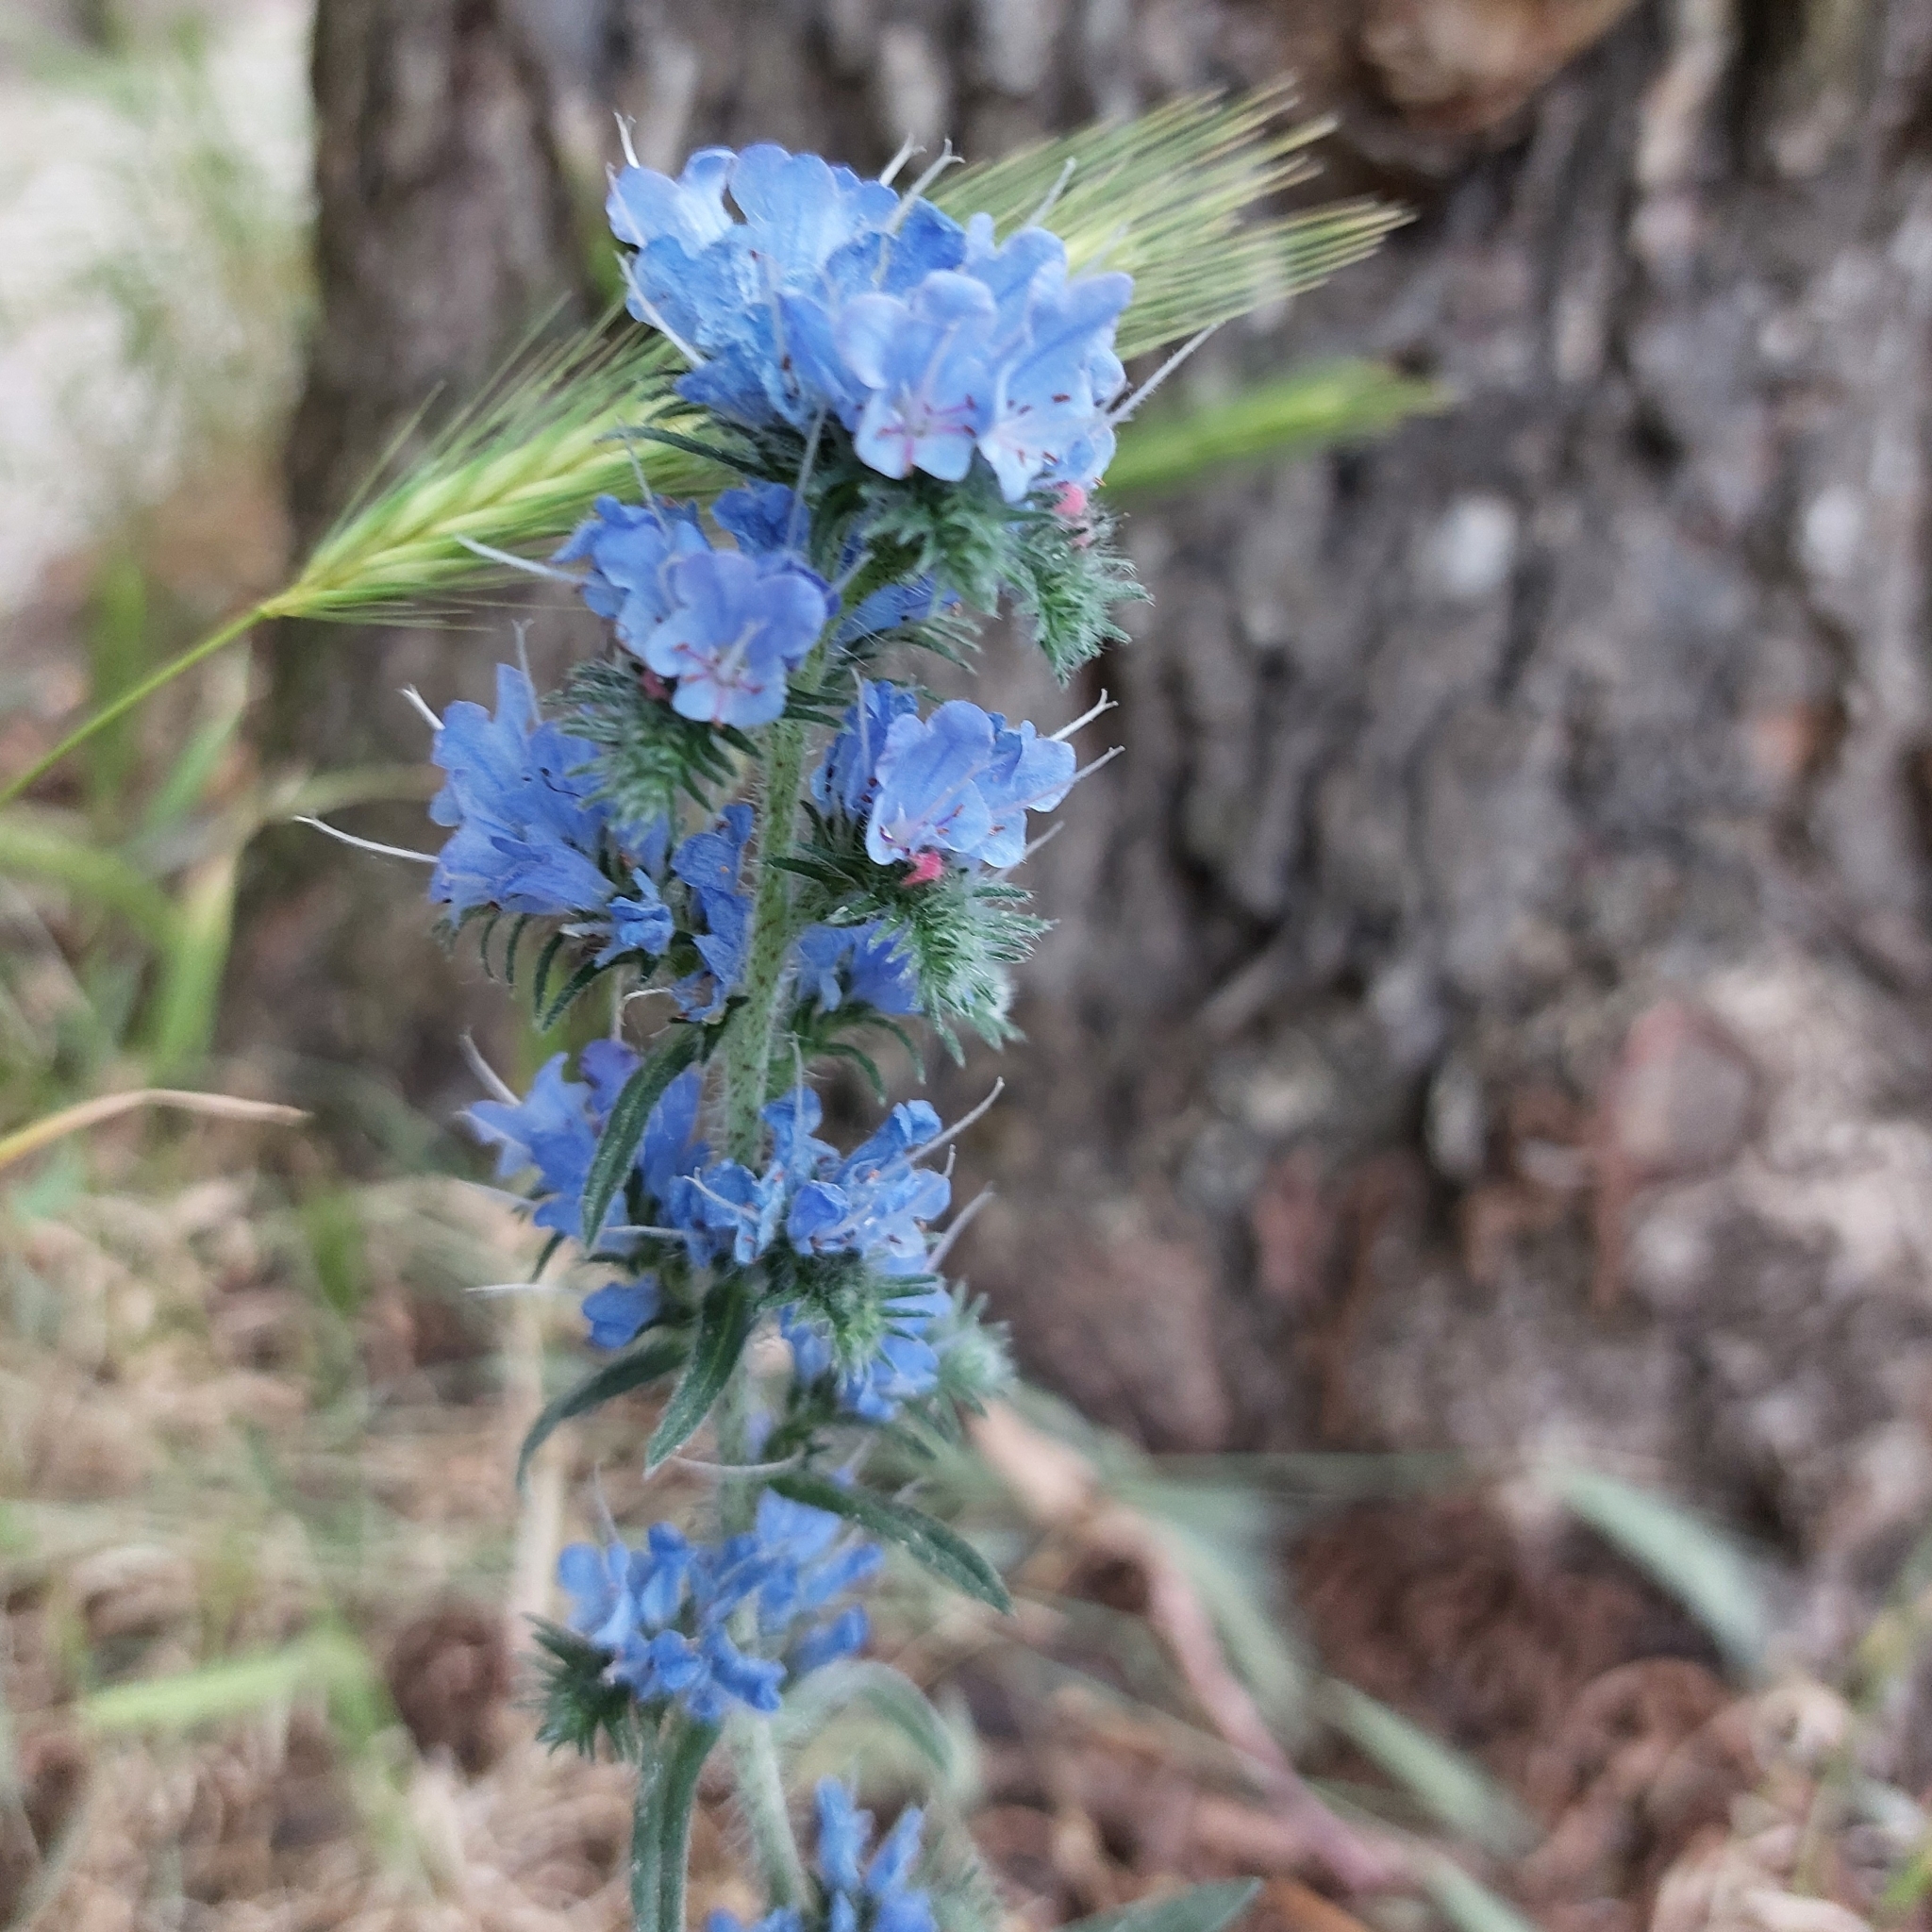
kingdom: Plantae
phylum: Tracheophyta
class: Magnoliopsida
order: Boraginales
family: Boraginaceae
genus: Echium
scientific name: Echium vulgare
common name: Common viper's bugloss
